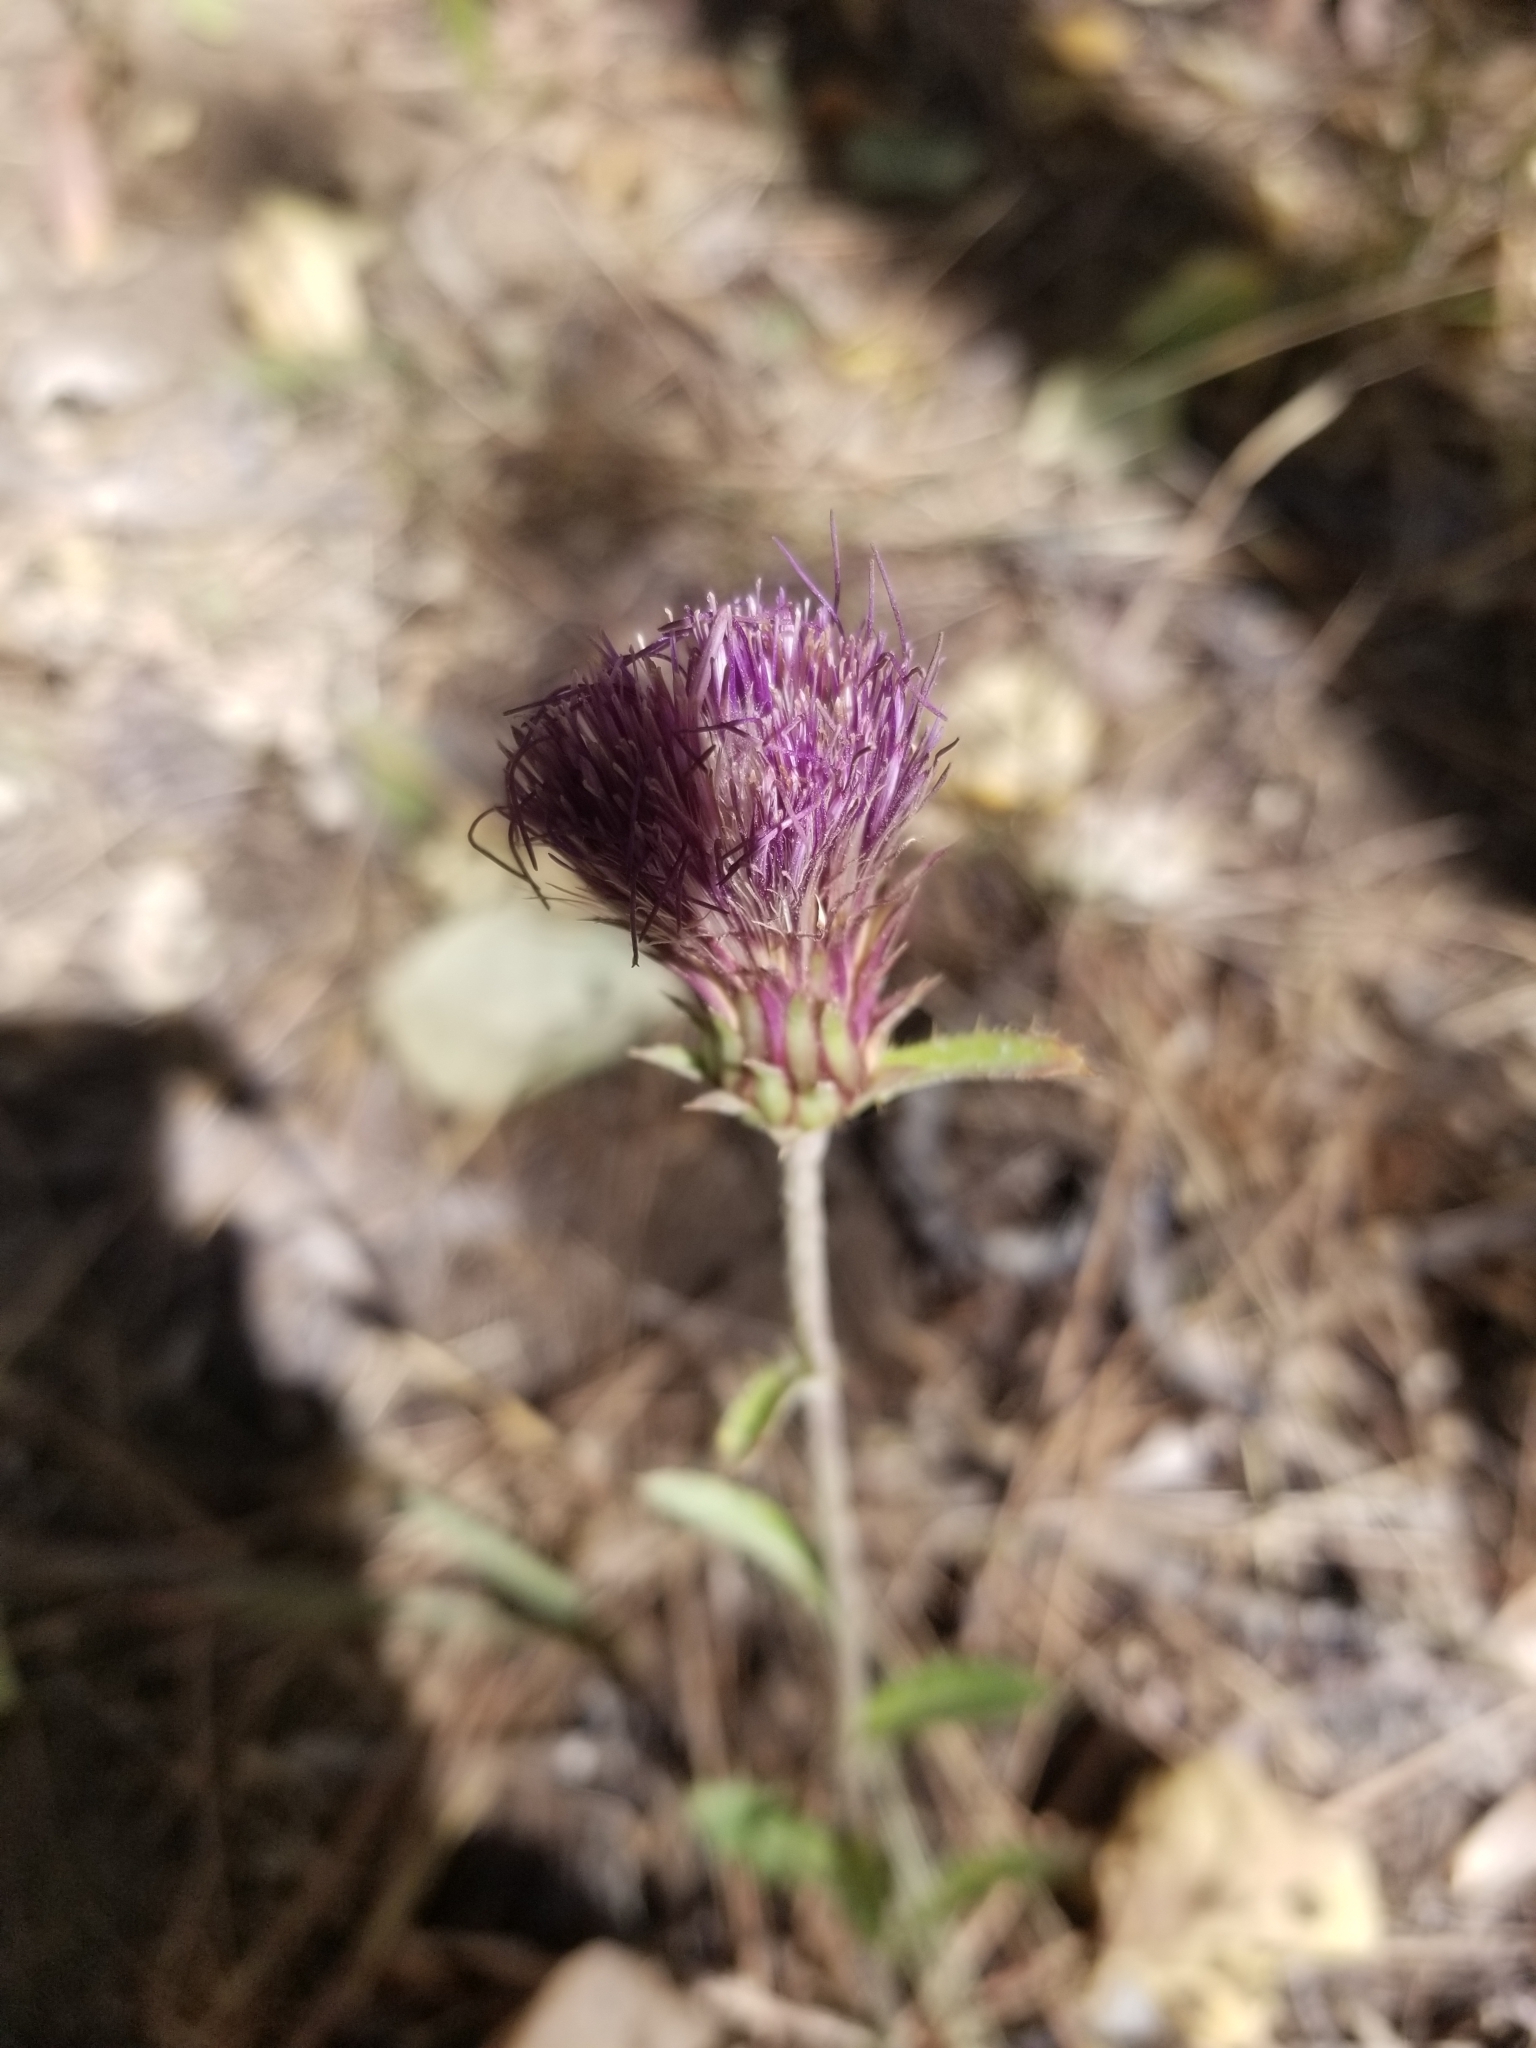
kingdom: Plantae
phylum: Tracheophyta
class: Magnoliopsida
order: Asterales
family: Asteraceae
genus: Cirsium
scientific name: Cirsium andersonii
